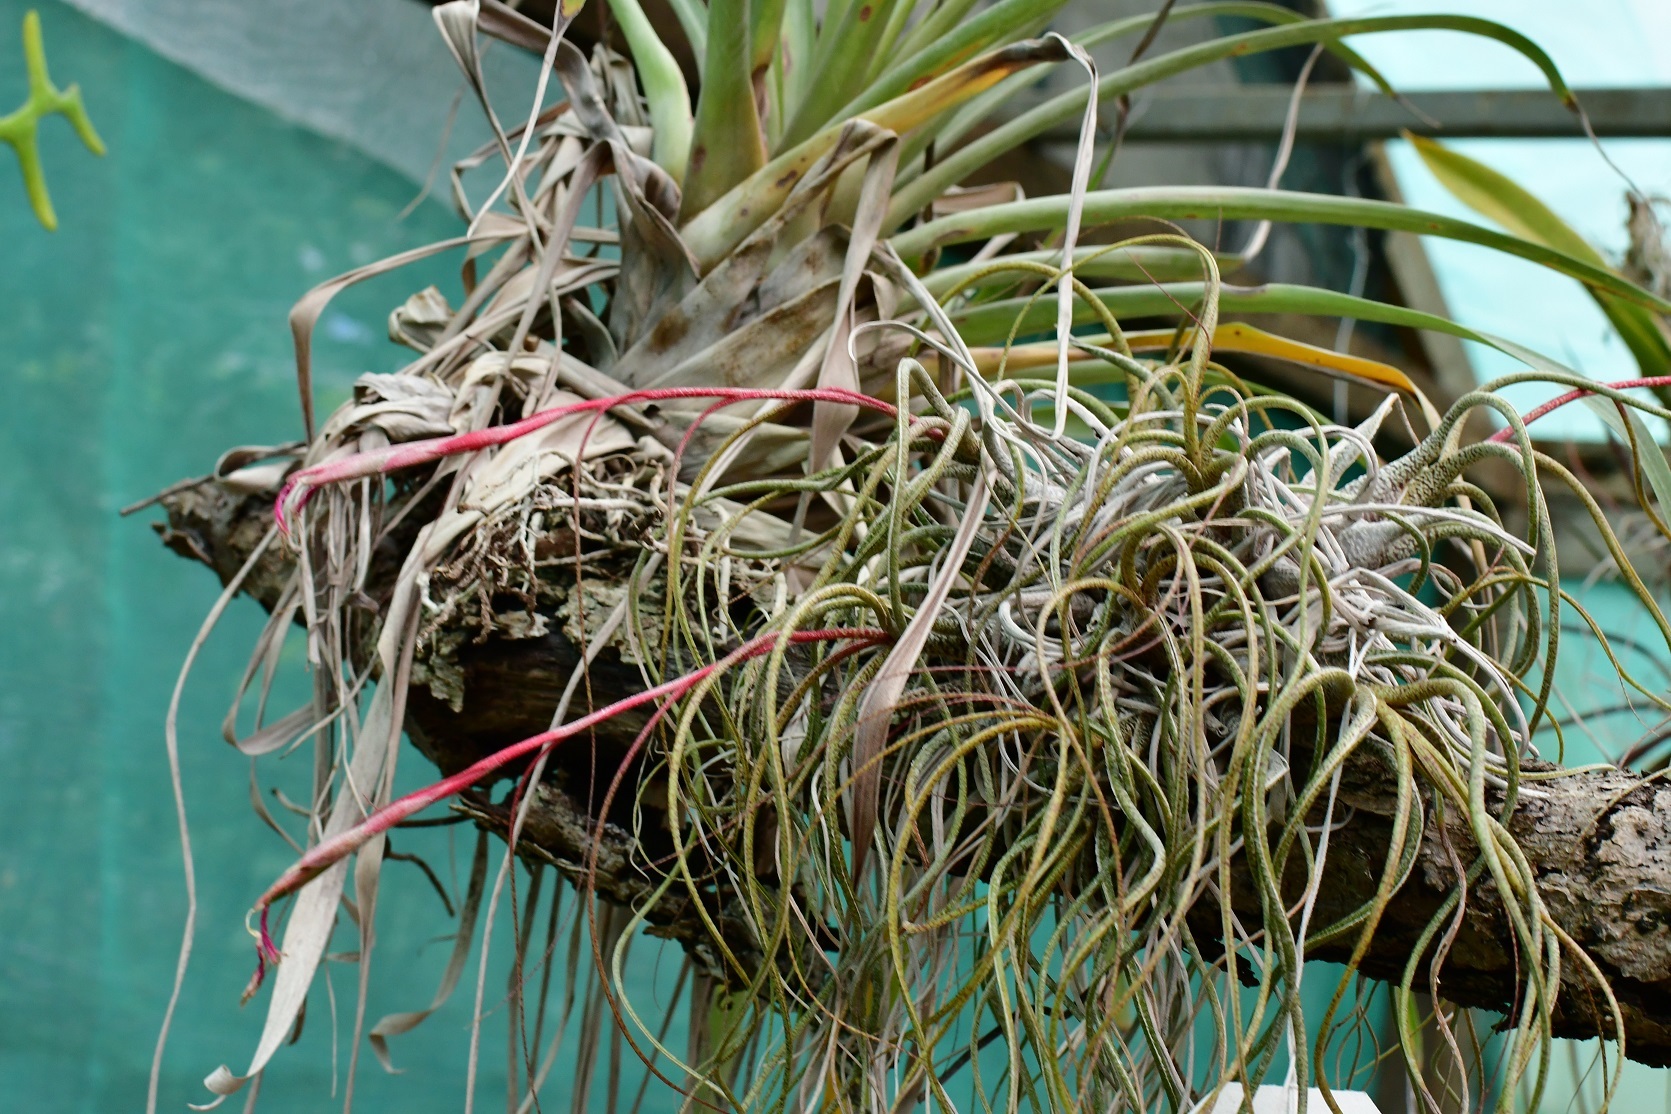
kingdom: Plantae
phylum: Tracheophyta
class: Liliopsida
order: Poales
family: Bromeliaceae
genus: Tillandsia
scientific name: Tillandsia butzii
